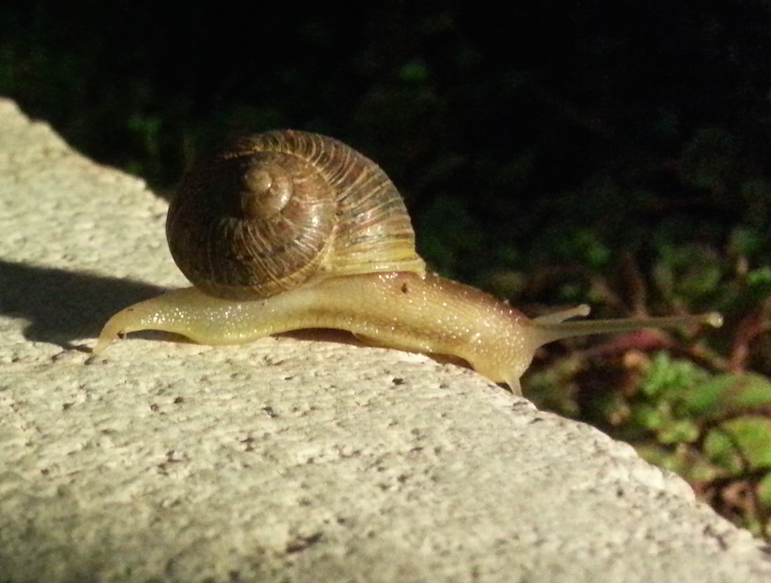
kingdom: Animalia
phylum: Mollusca
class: Gastropoda
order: Stylommatophora
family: Helicidae
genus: Cornu
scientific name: Cornu aspersum
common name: Brown garden snail
